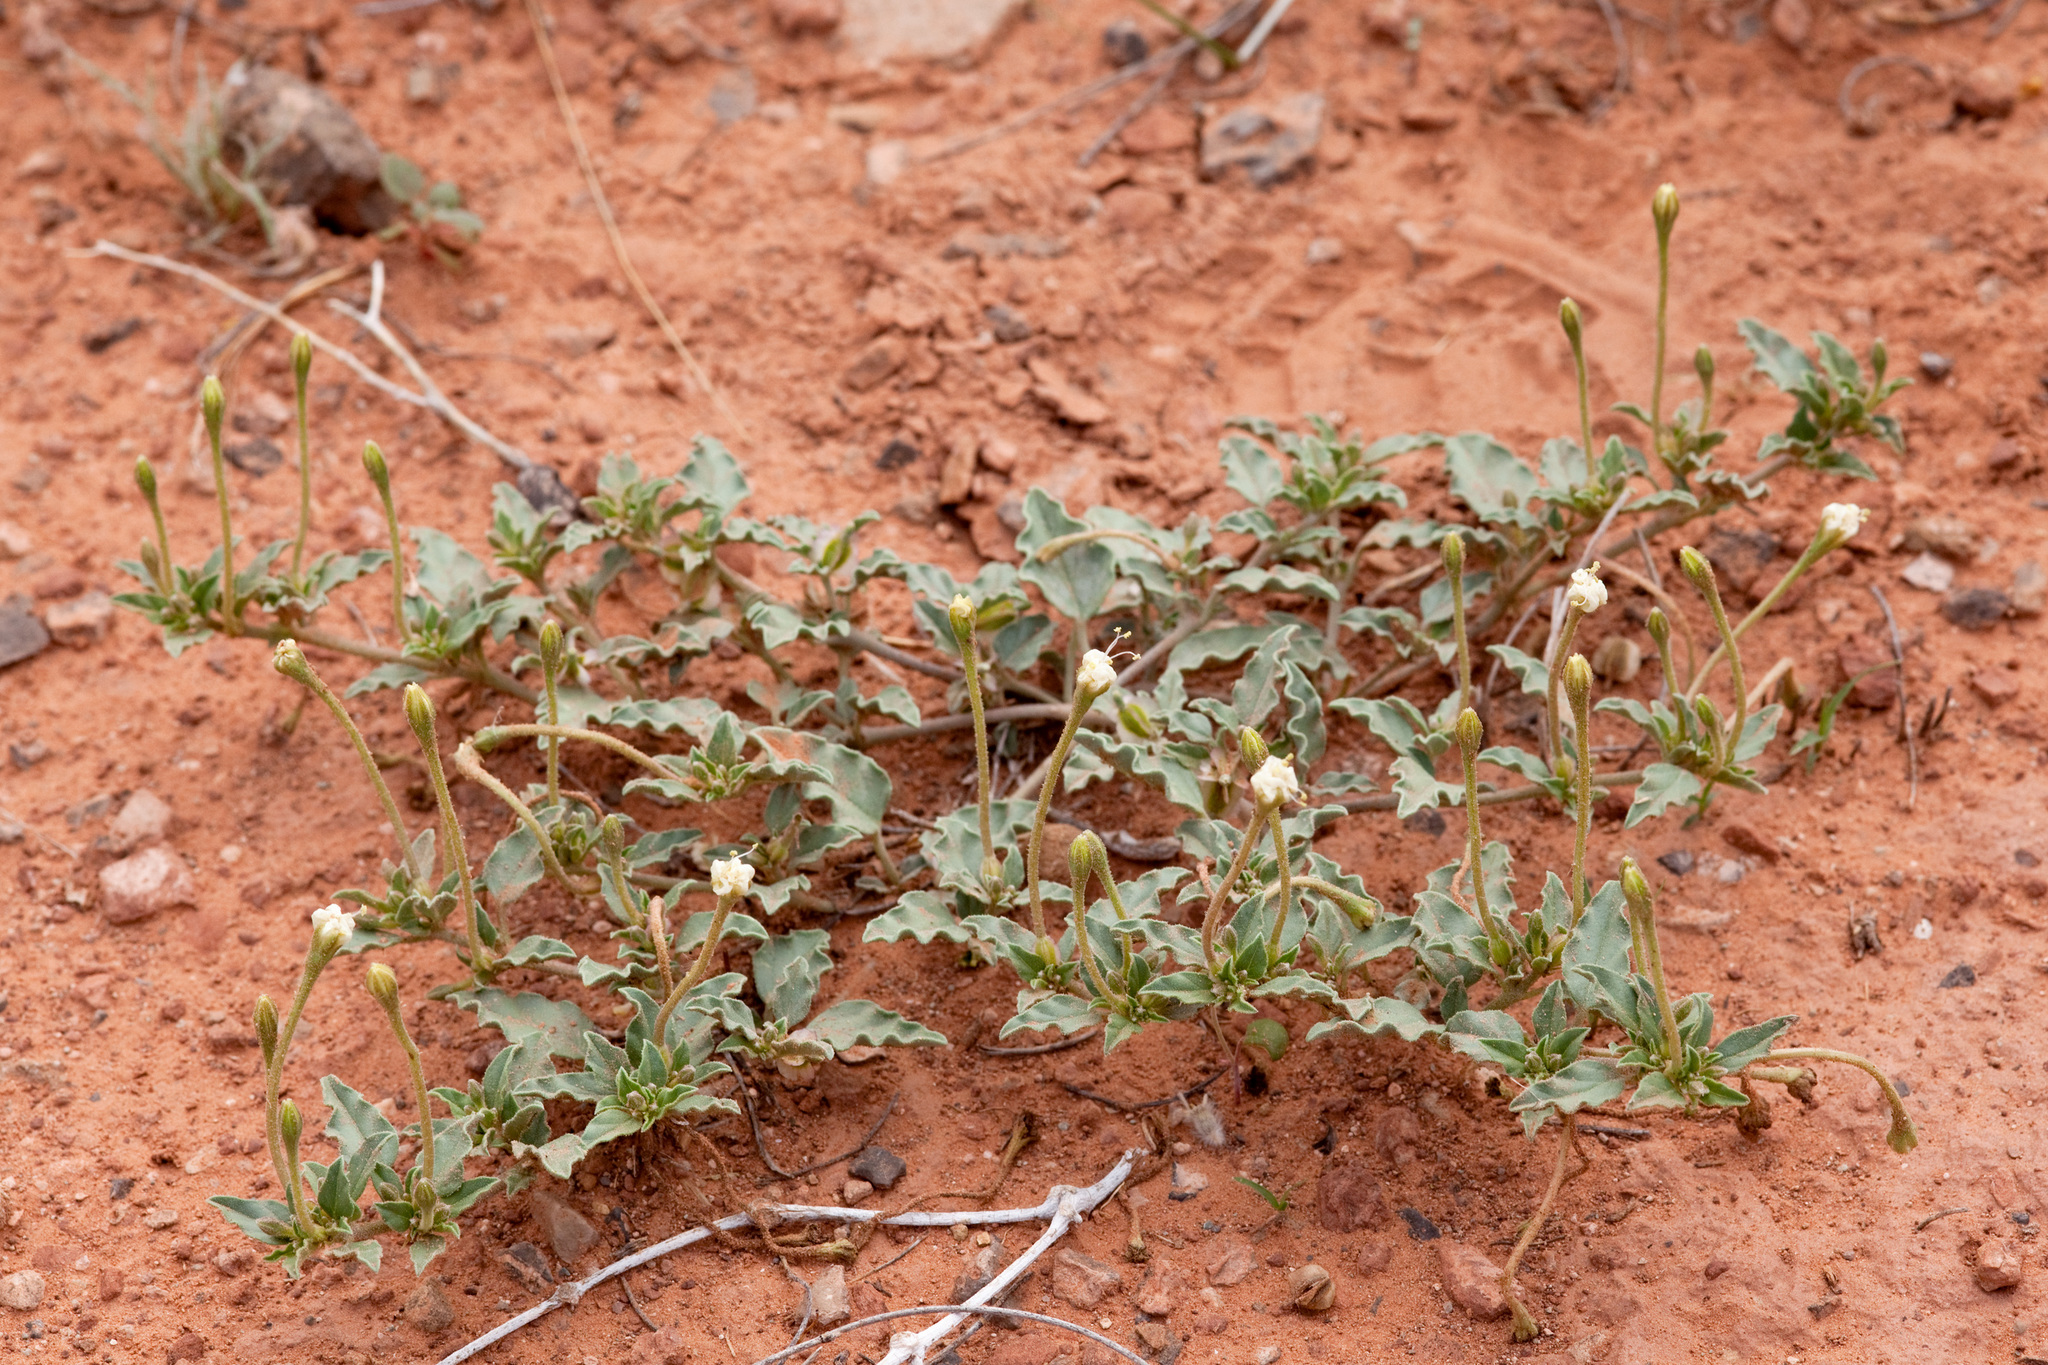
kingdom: Plantae
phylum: Tracheophyta
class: Magnoliopsida
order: Caryophyllales
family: Nyctaginaceae
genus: Acleisanthes
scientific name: Acleisanthes diffusa
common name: Spreading moonpod
